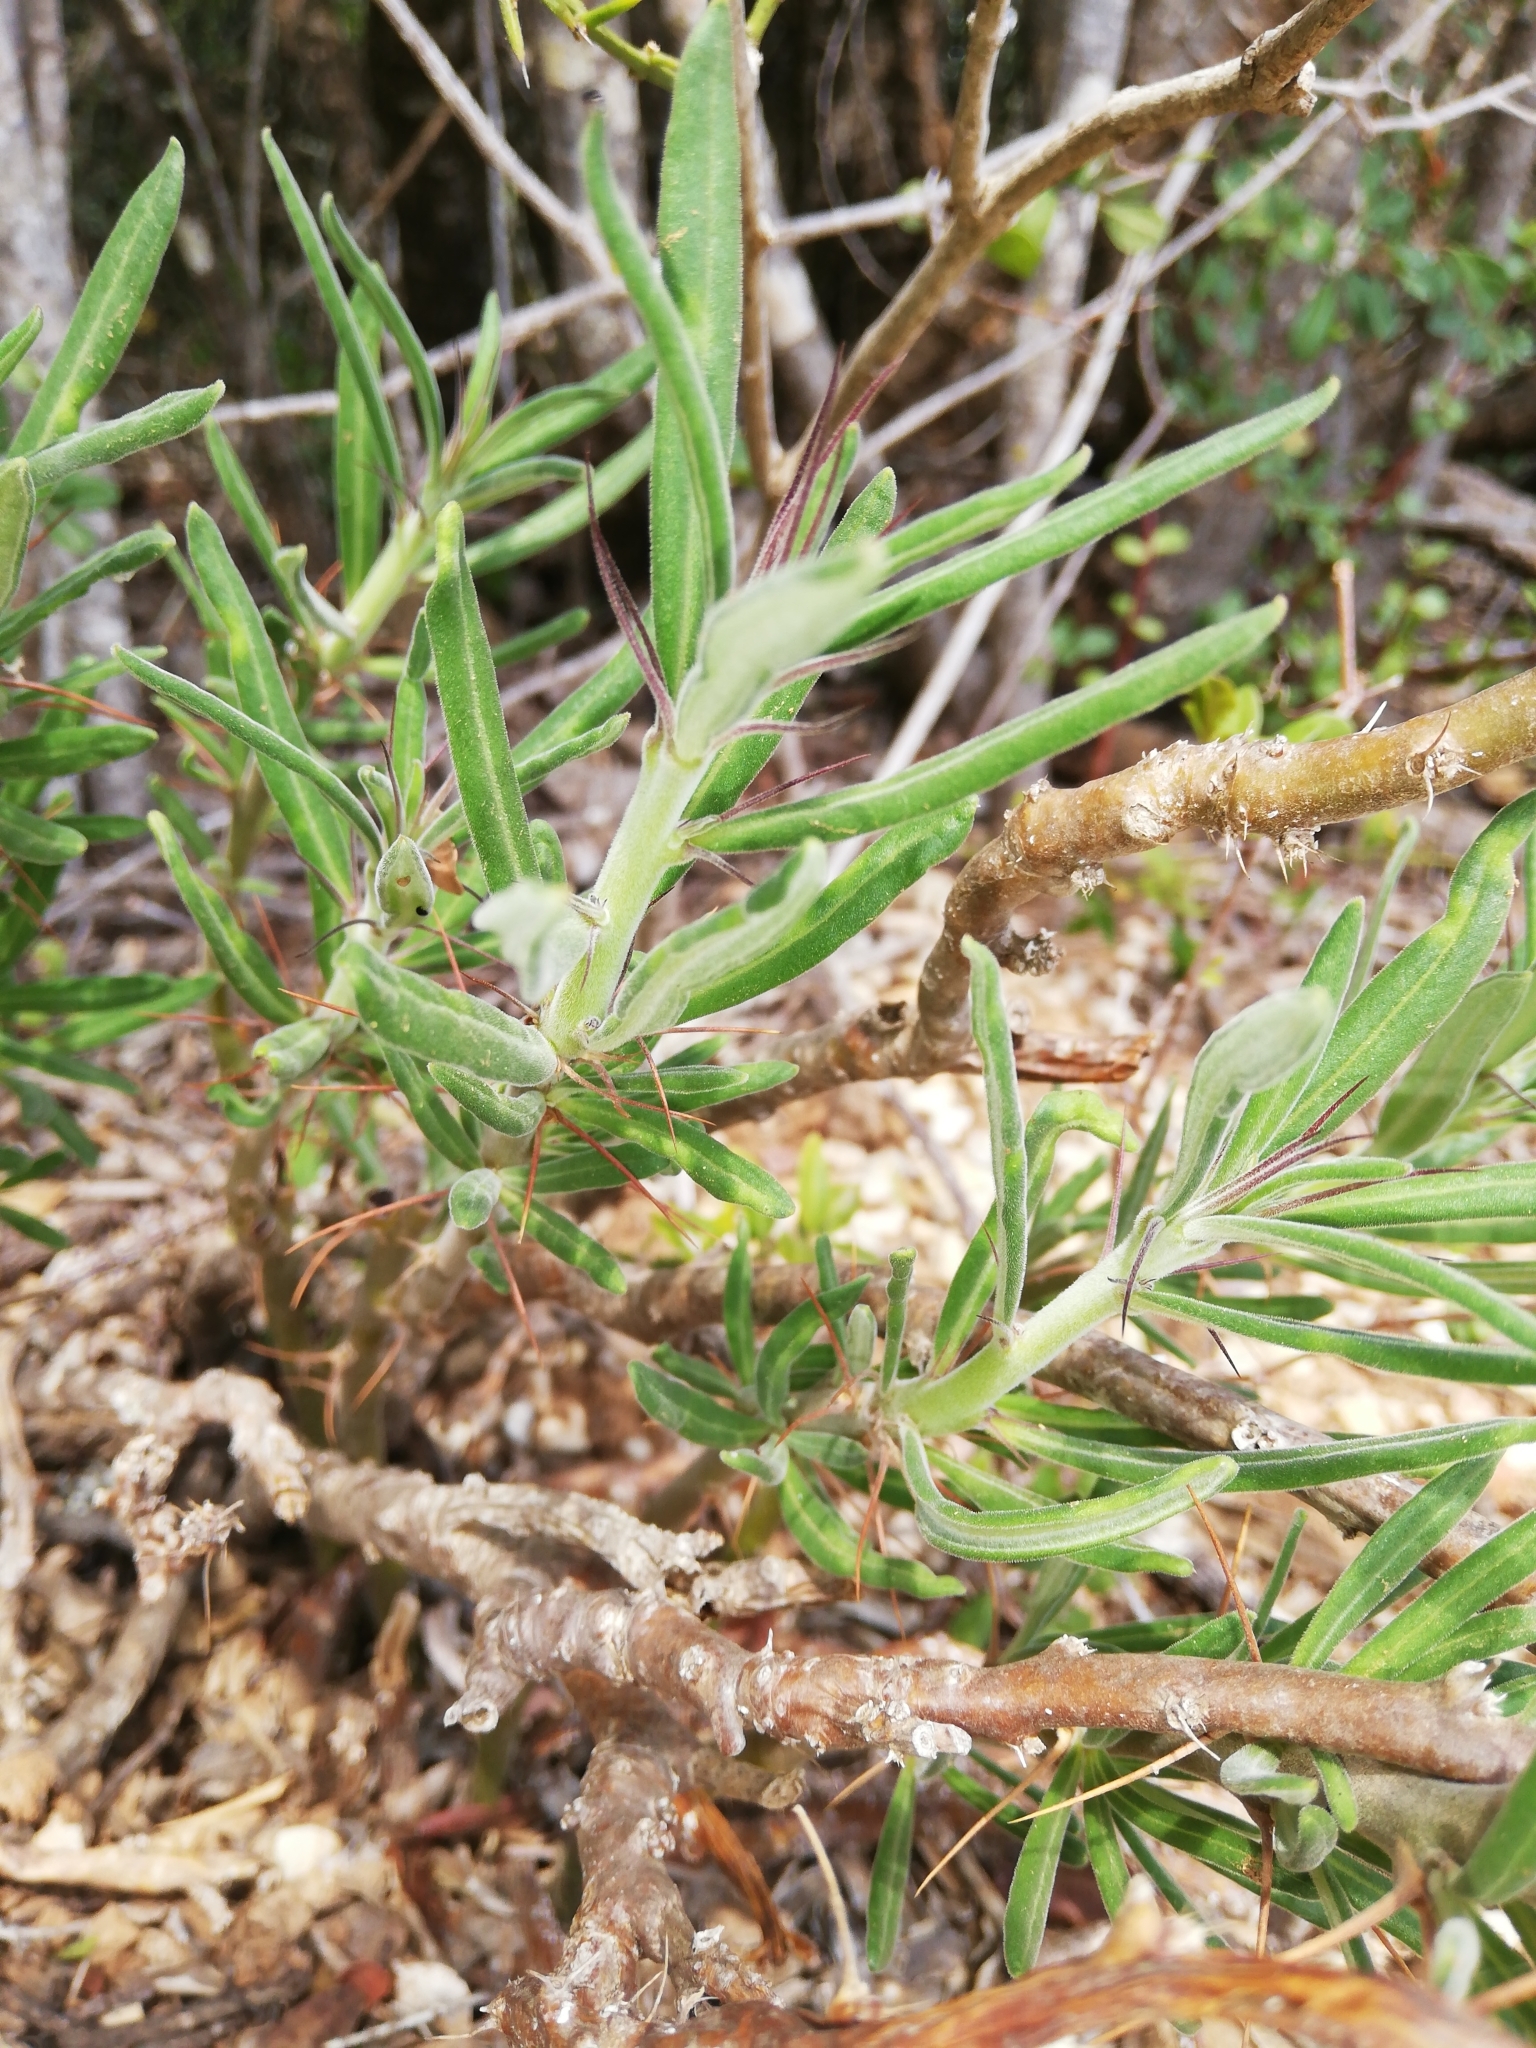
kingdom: Plantae
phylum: Tracheophyta
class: Magnoliopsida
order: Gentianales
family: Apocynaceae
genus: Pachypodium
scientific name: Pachypodium succulentum
